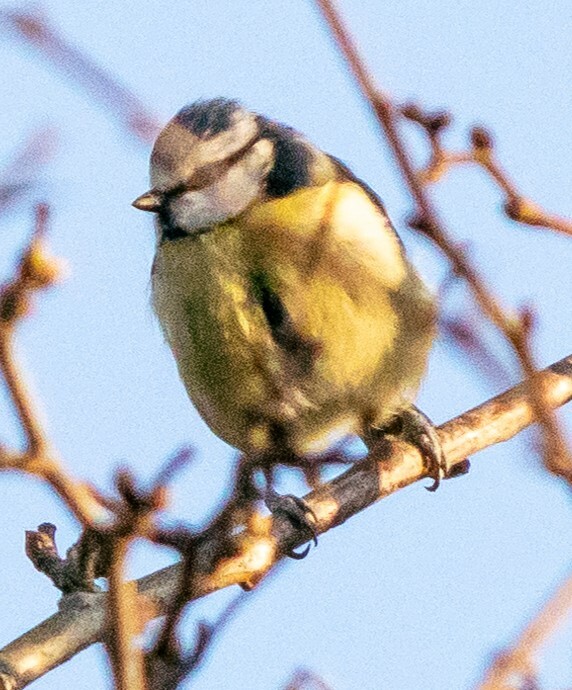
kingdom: Animalia
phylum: Chordata
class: Aves
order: Passeriformes
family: Paridae
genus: Cyanistes
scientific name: Cyanistes caeruleus
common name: Eurasian blue tit
